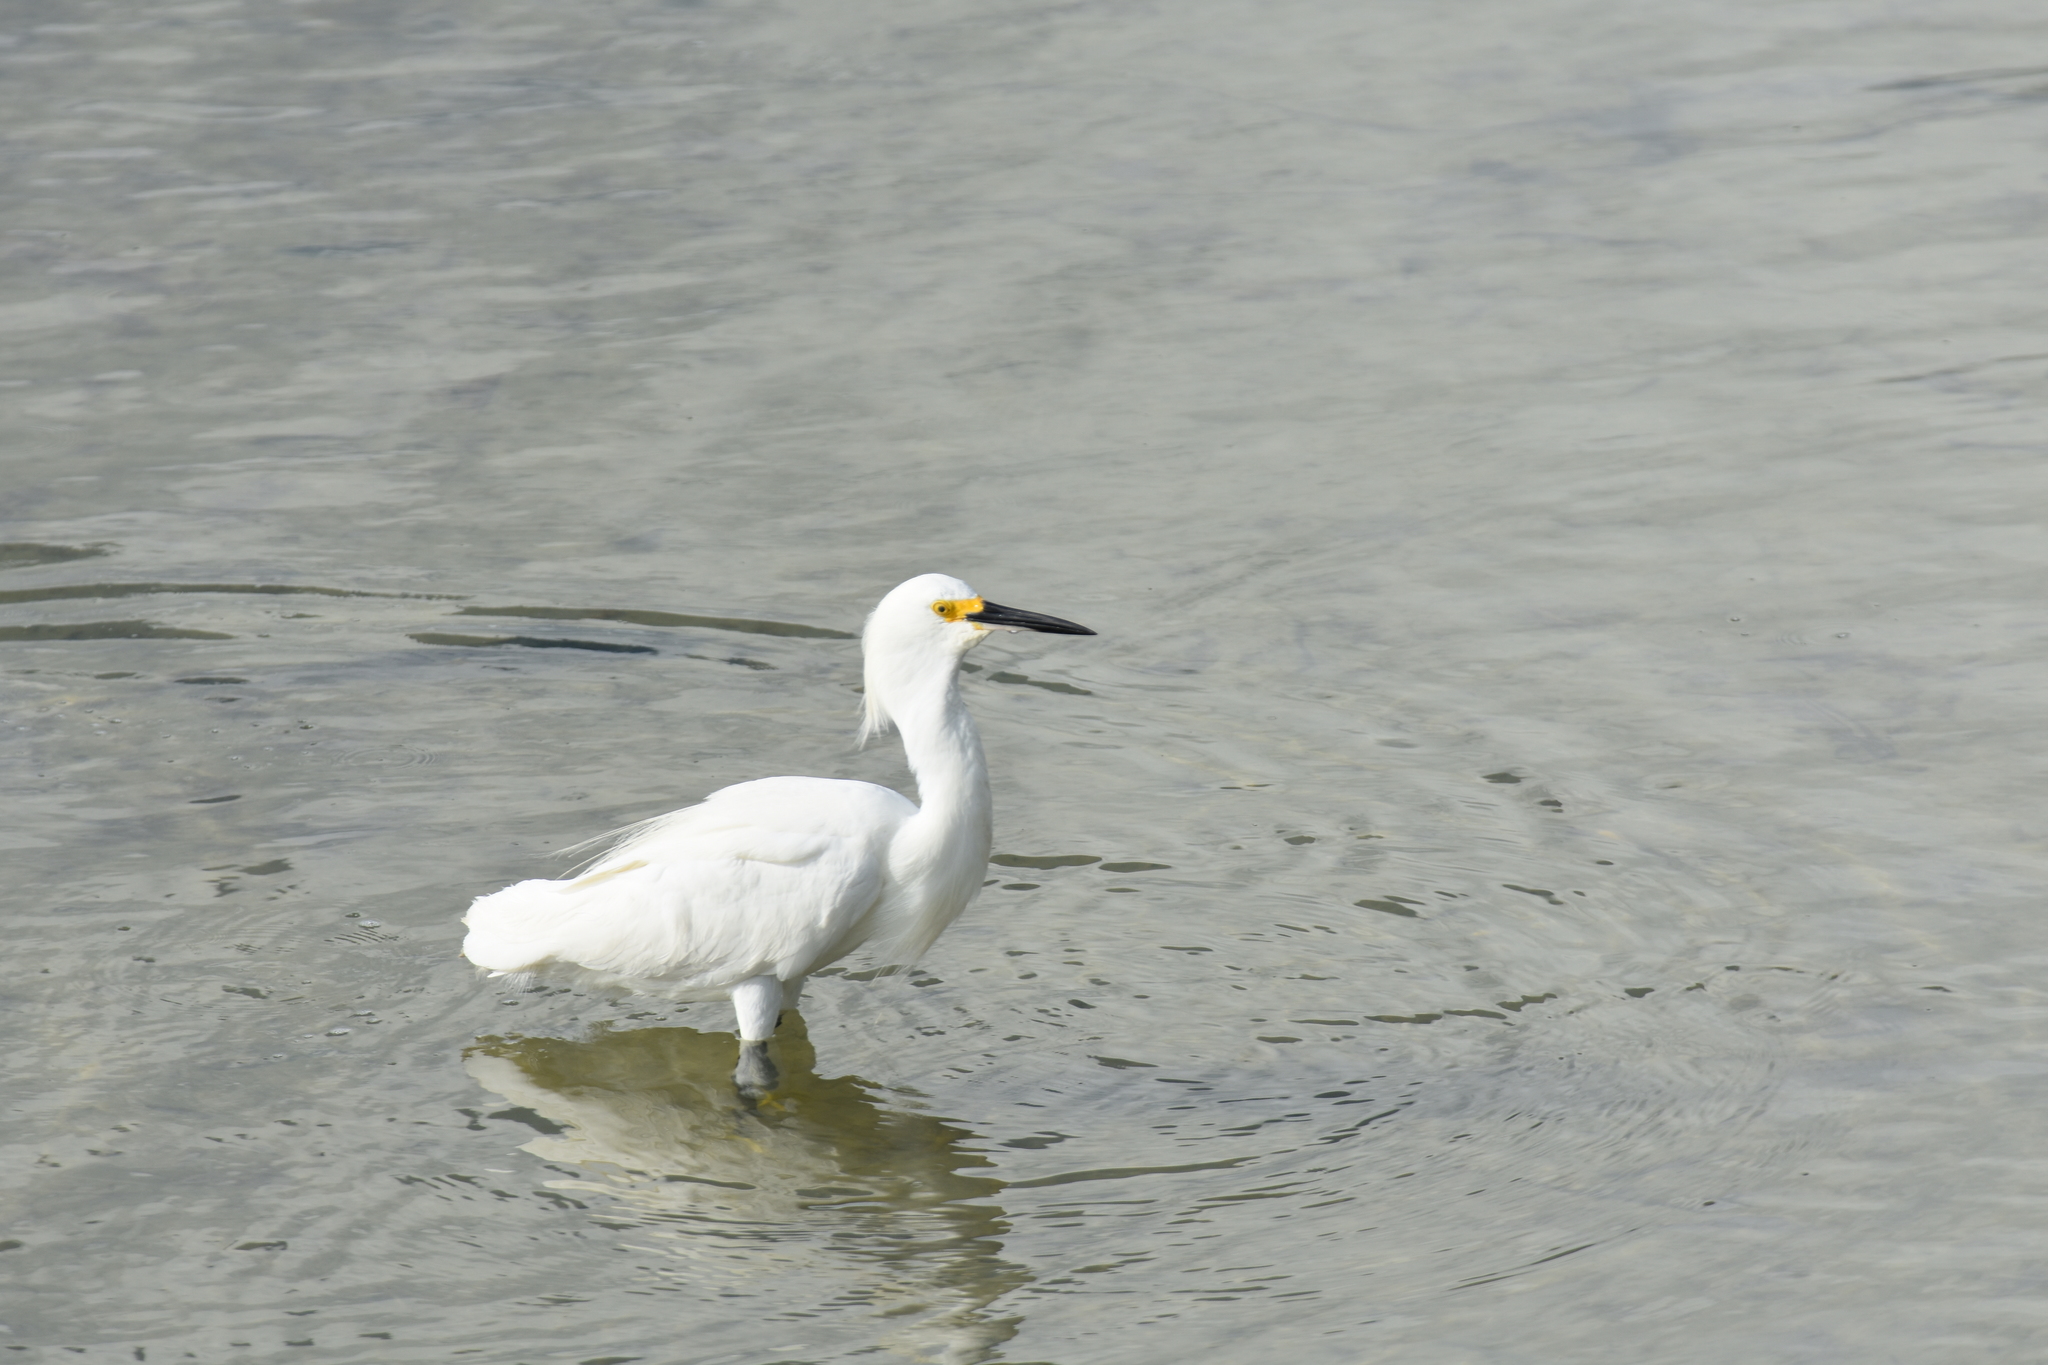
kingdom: Animalia
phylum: Chordata
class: Aves
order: Pelecaniformes
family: Ardeidae
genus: Egretta
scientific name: Egretta thula
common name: Snowy egret
